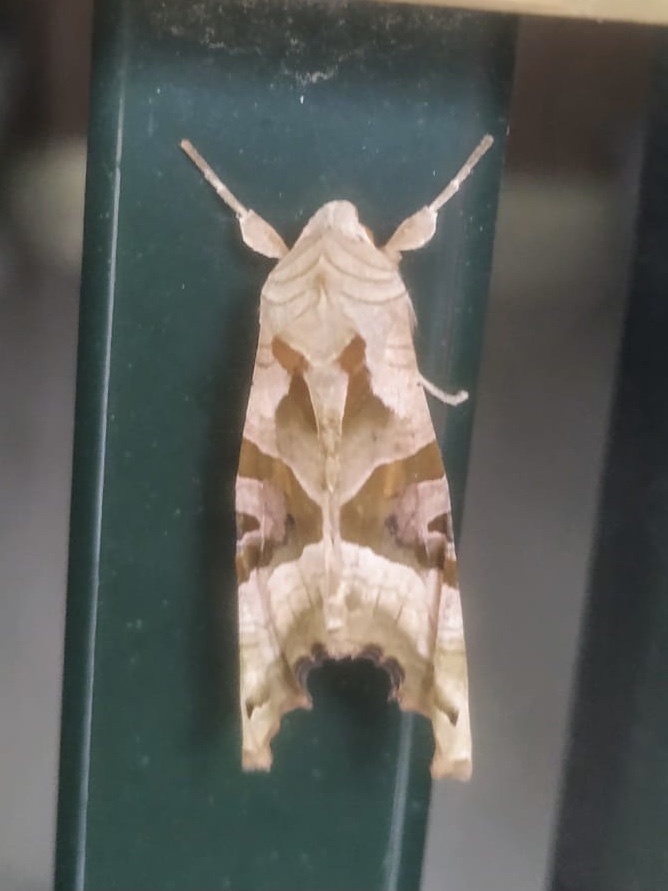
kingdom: Animalia
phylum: Arthropoda
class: Insecta
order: Lepidoptera
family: Noctuidae
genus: Phlogophora
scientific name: Phlogophora meticulosa
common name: Angle shades
